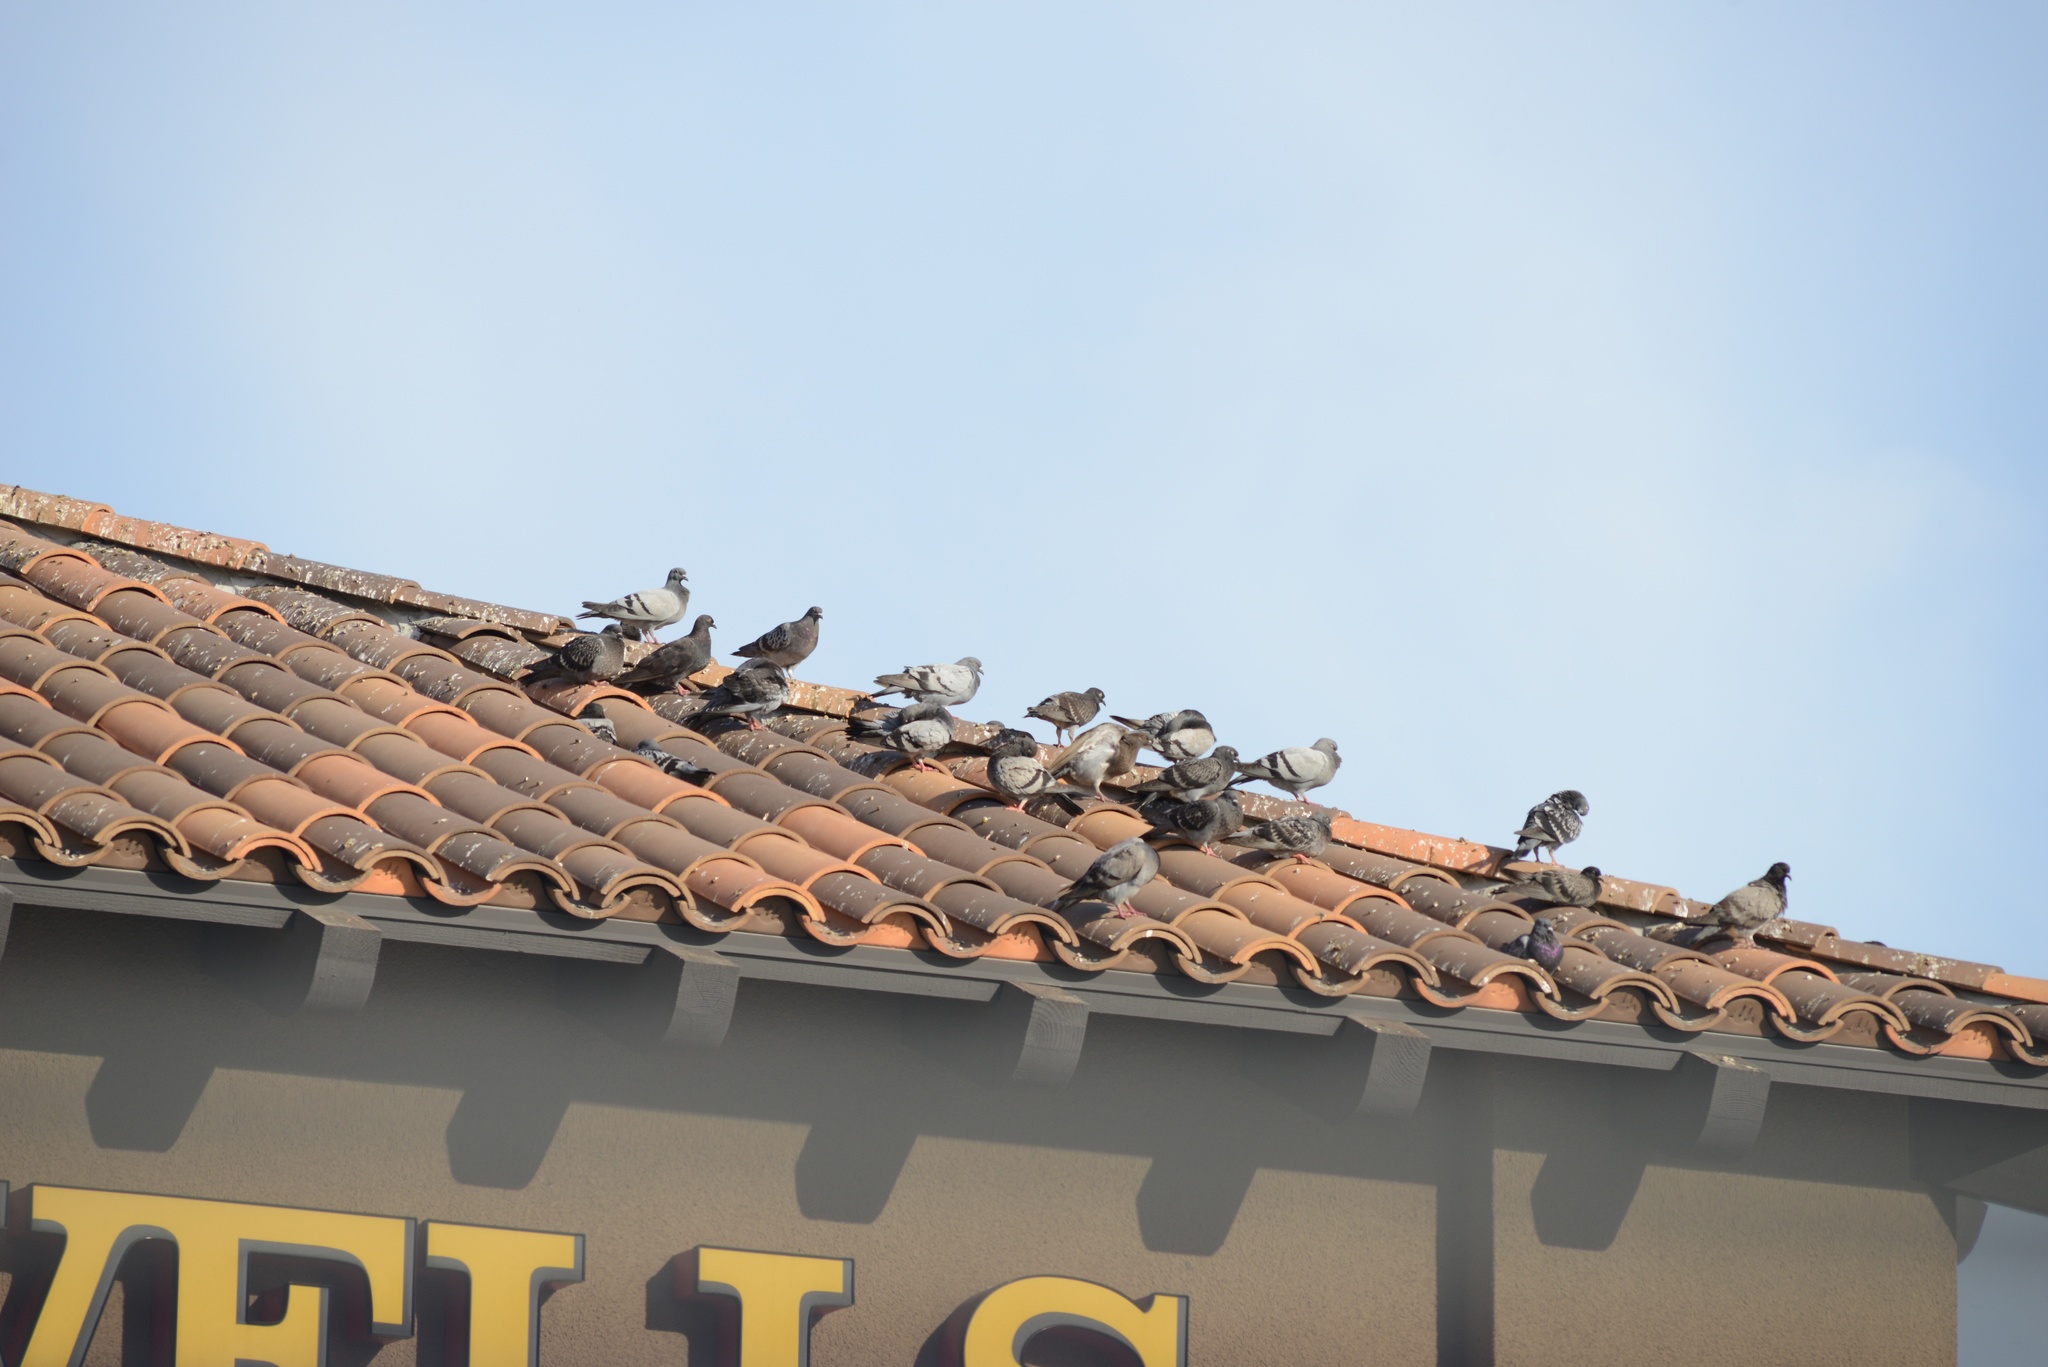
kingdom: Animalia
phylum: Chordata
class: Aves
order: Columbiformes
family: Columbidae
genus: Columba
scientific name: Columba livia
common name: Rock pigeon
